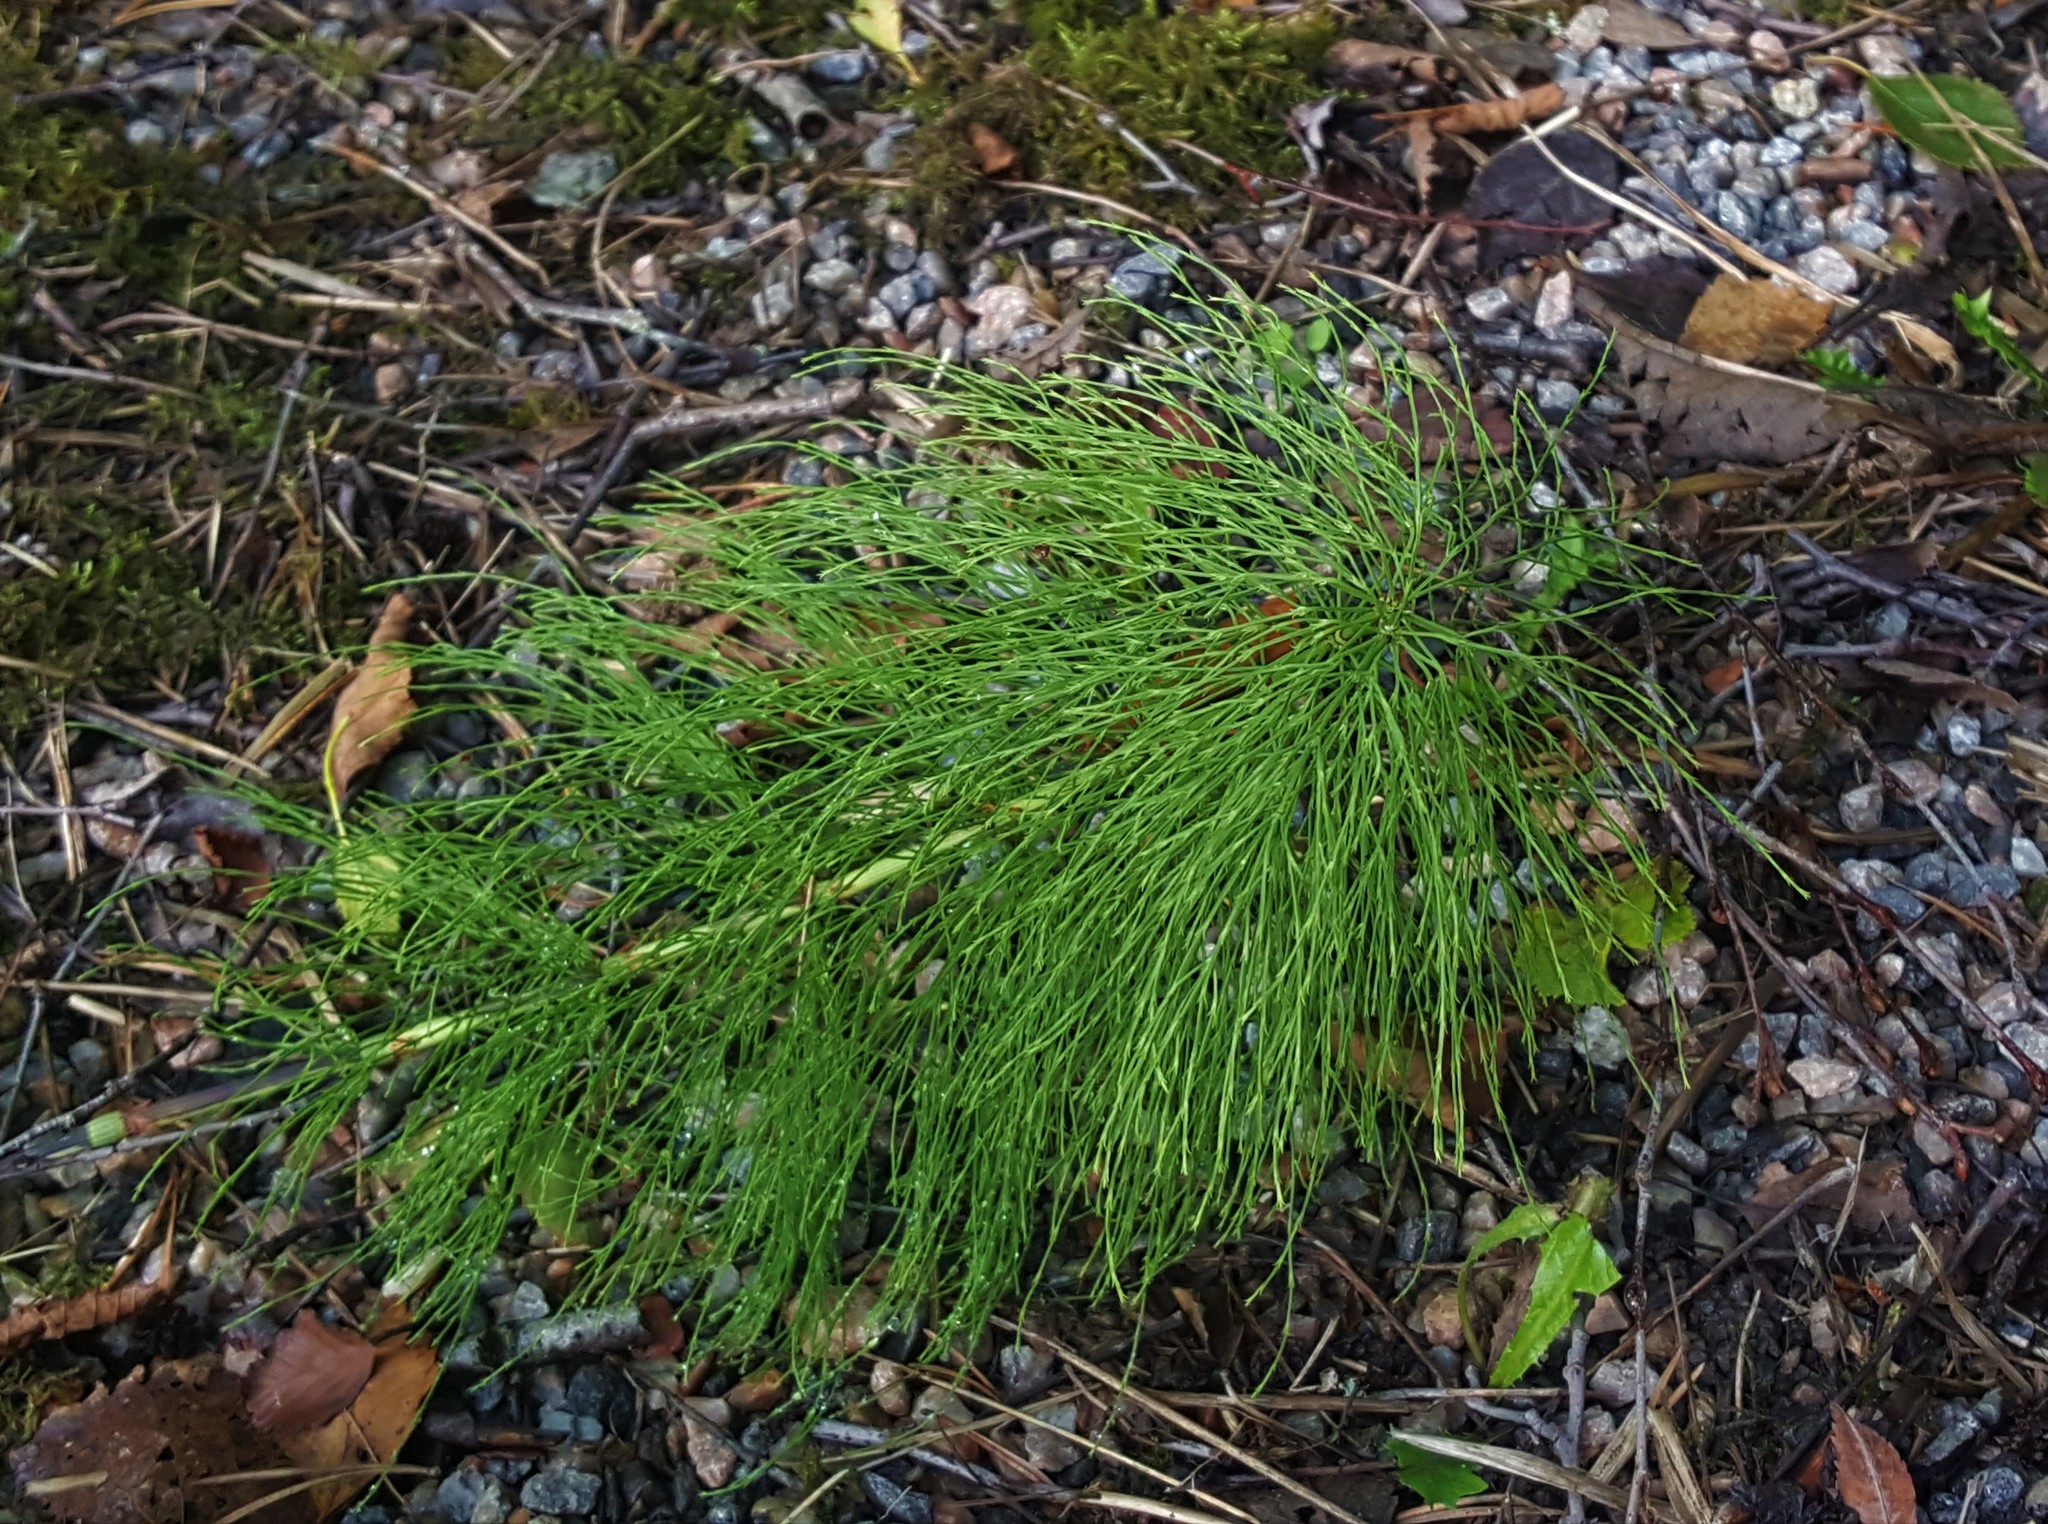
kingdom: Plantae
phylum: Tracheophyta
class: Polypodiopsida
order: Equisetales
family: Equisetaceae
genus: Equisetum
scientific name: Equisetum sylvaticum
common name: Wood horsetail
